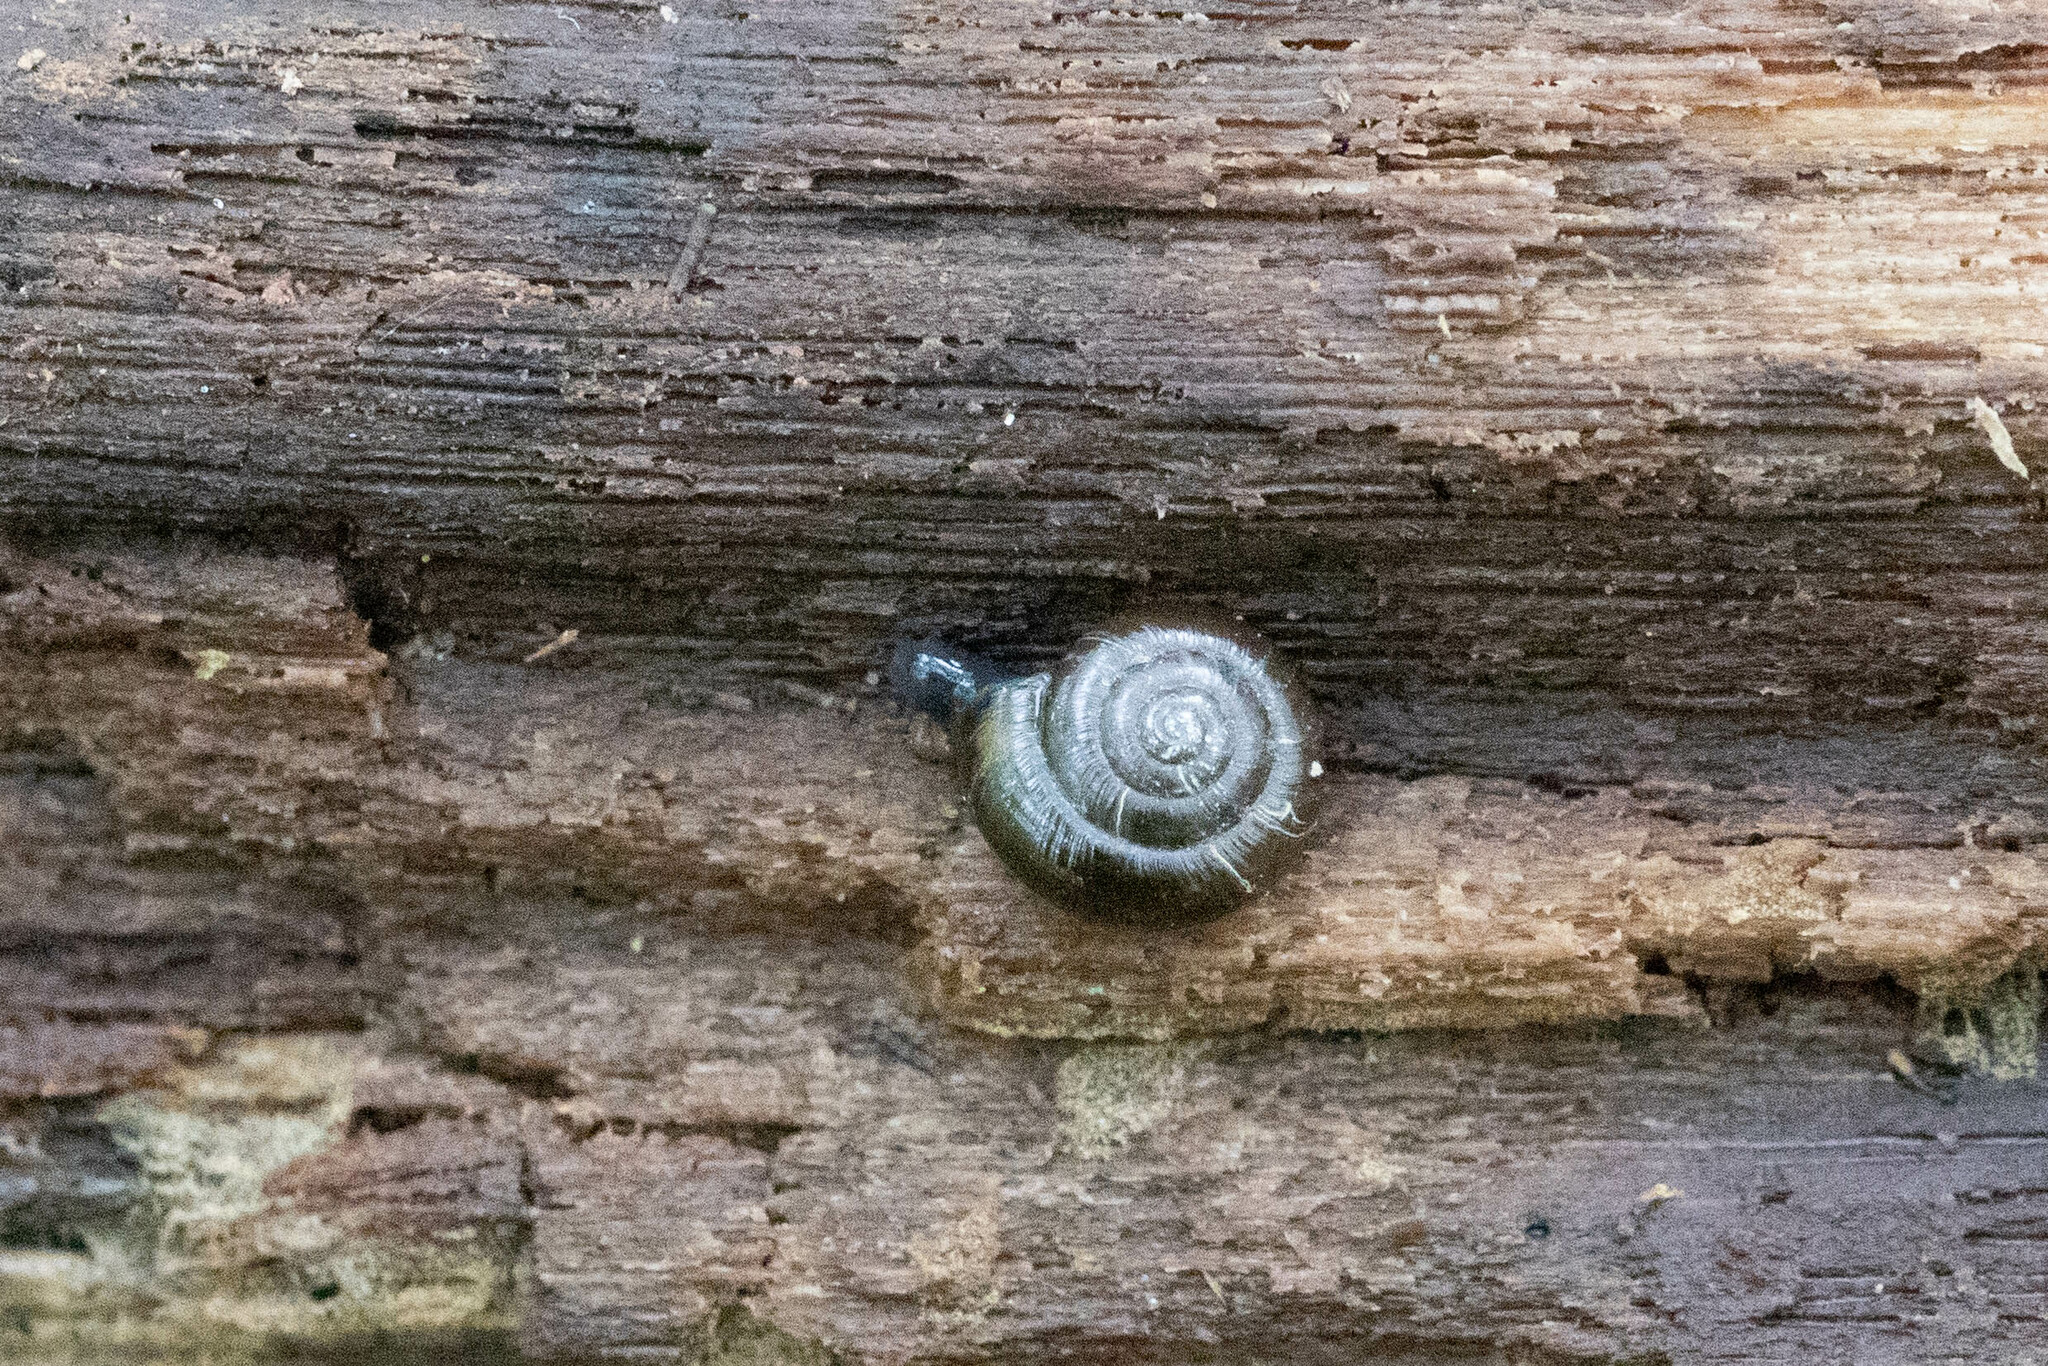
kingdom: Animalia
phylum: Mollusca
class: Gastropoda
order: Stylommatophora
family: Hygromiidae
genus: Trochulus
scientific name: Trochulus hispidus
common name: Hairy snail
